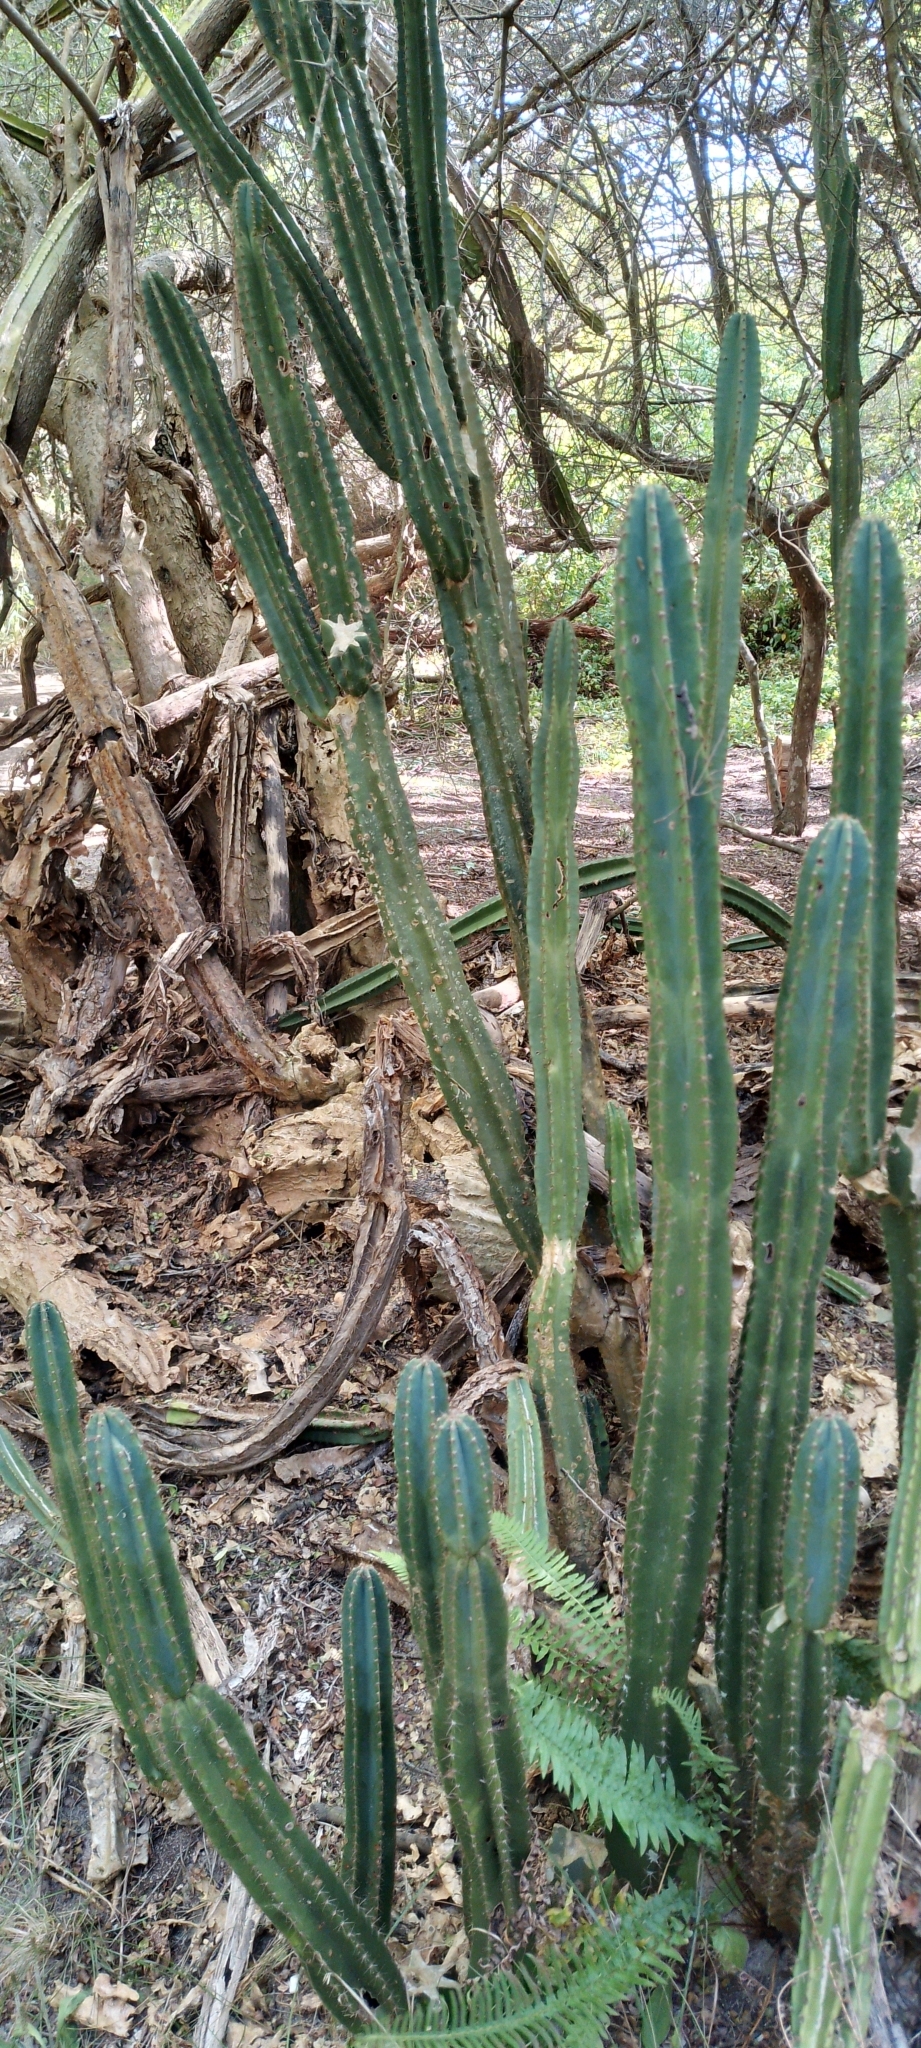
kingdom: Plantae
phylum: Tracheophyta
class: Magnoliopsida
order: Caryophyllales
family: Cactaceae
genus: Cereus
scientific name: Cereus hildmannianus
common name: Hedge cactus
